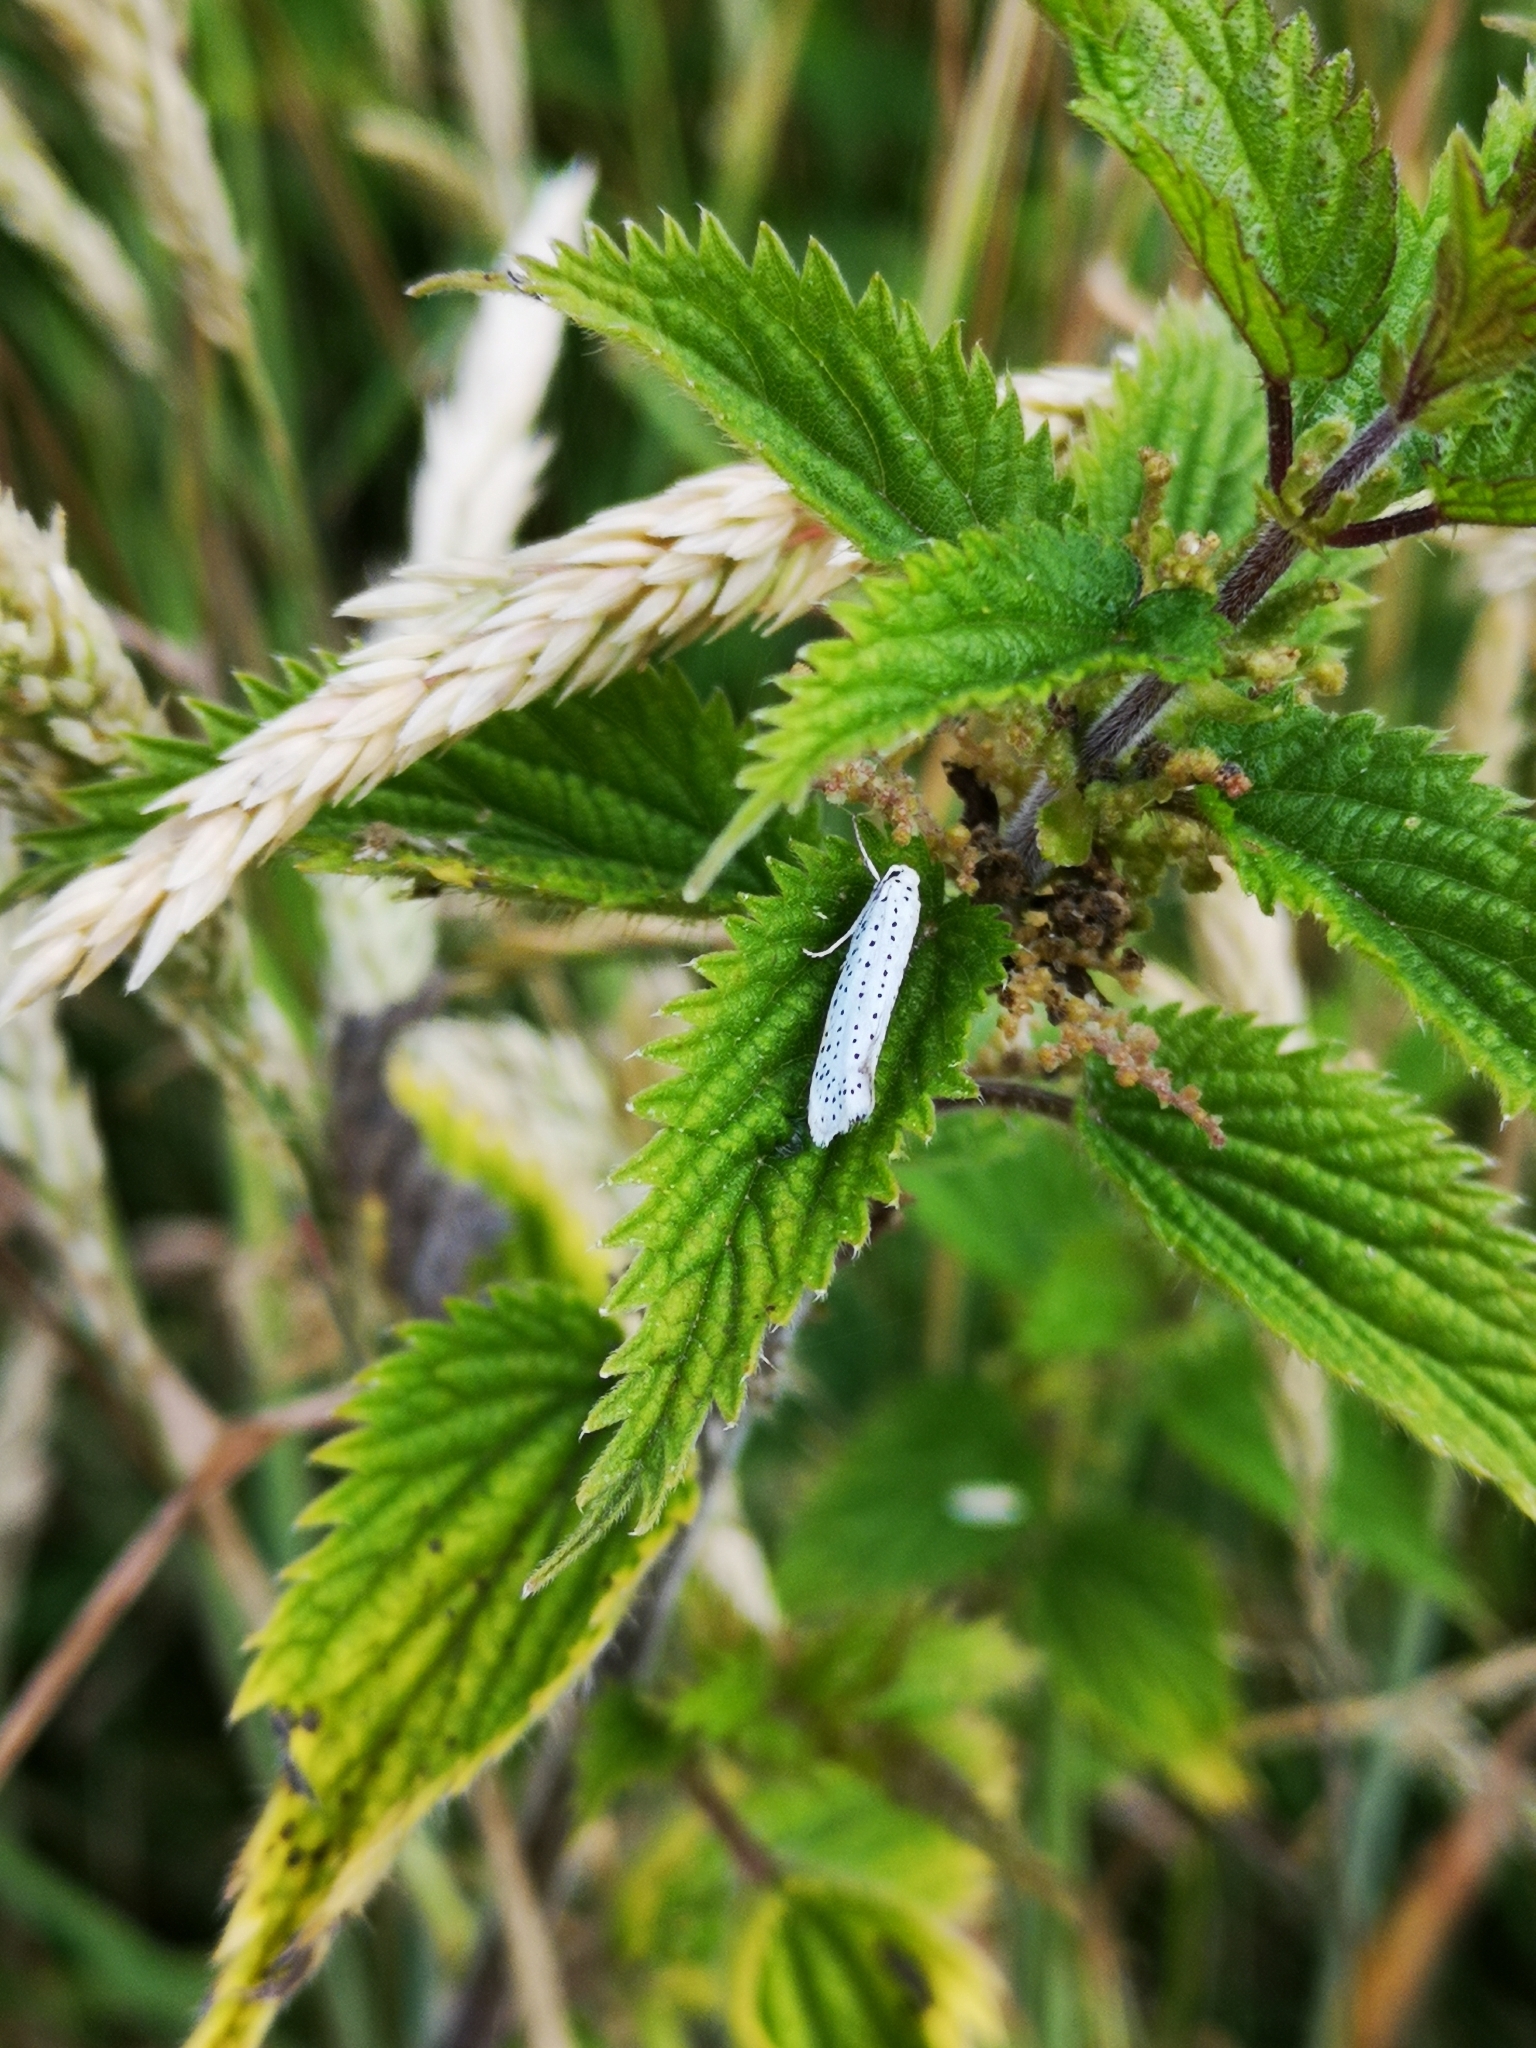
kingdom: Animalia
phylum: Arthropoda
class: Insecta
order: Lepidoptera
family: Yponomeutidae
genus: Yponomeuta
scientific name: Yponomeuta evonymella
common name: Bird-cherry ermine
